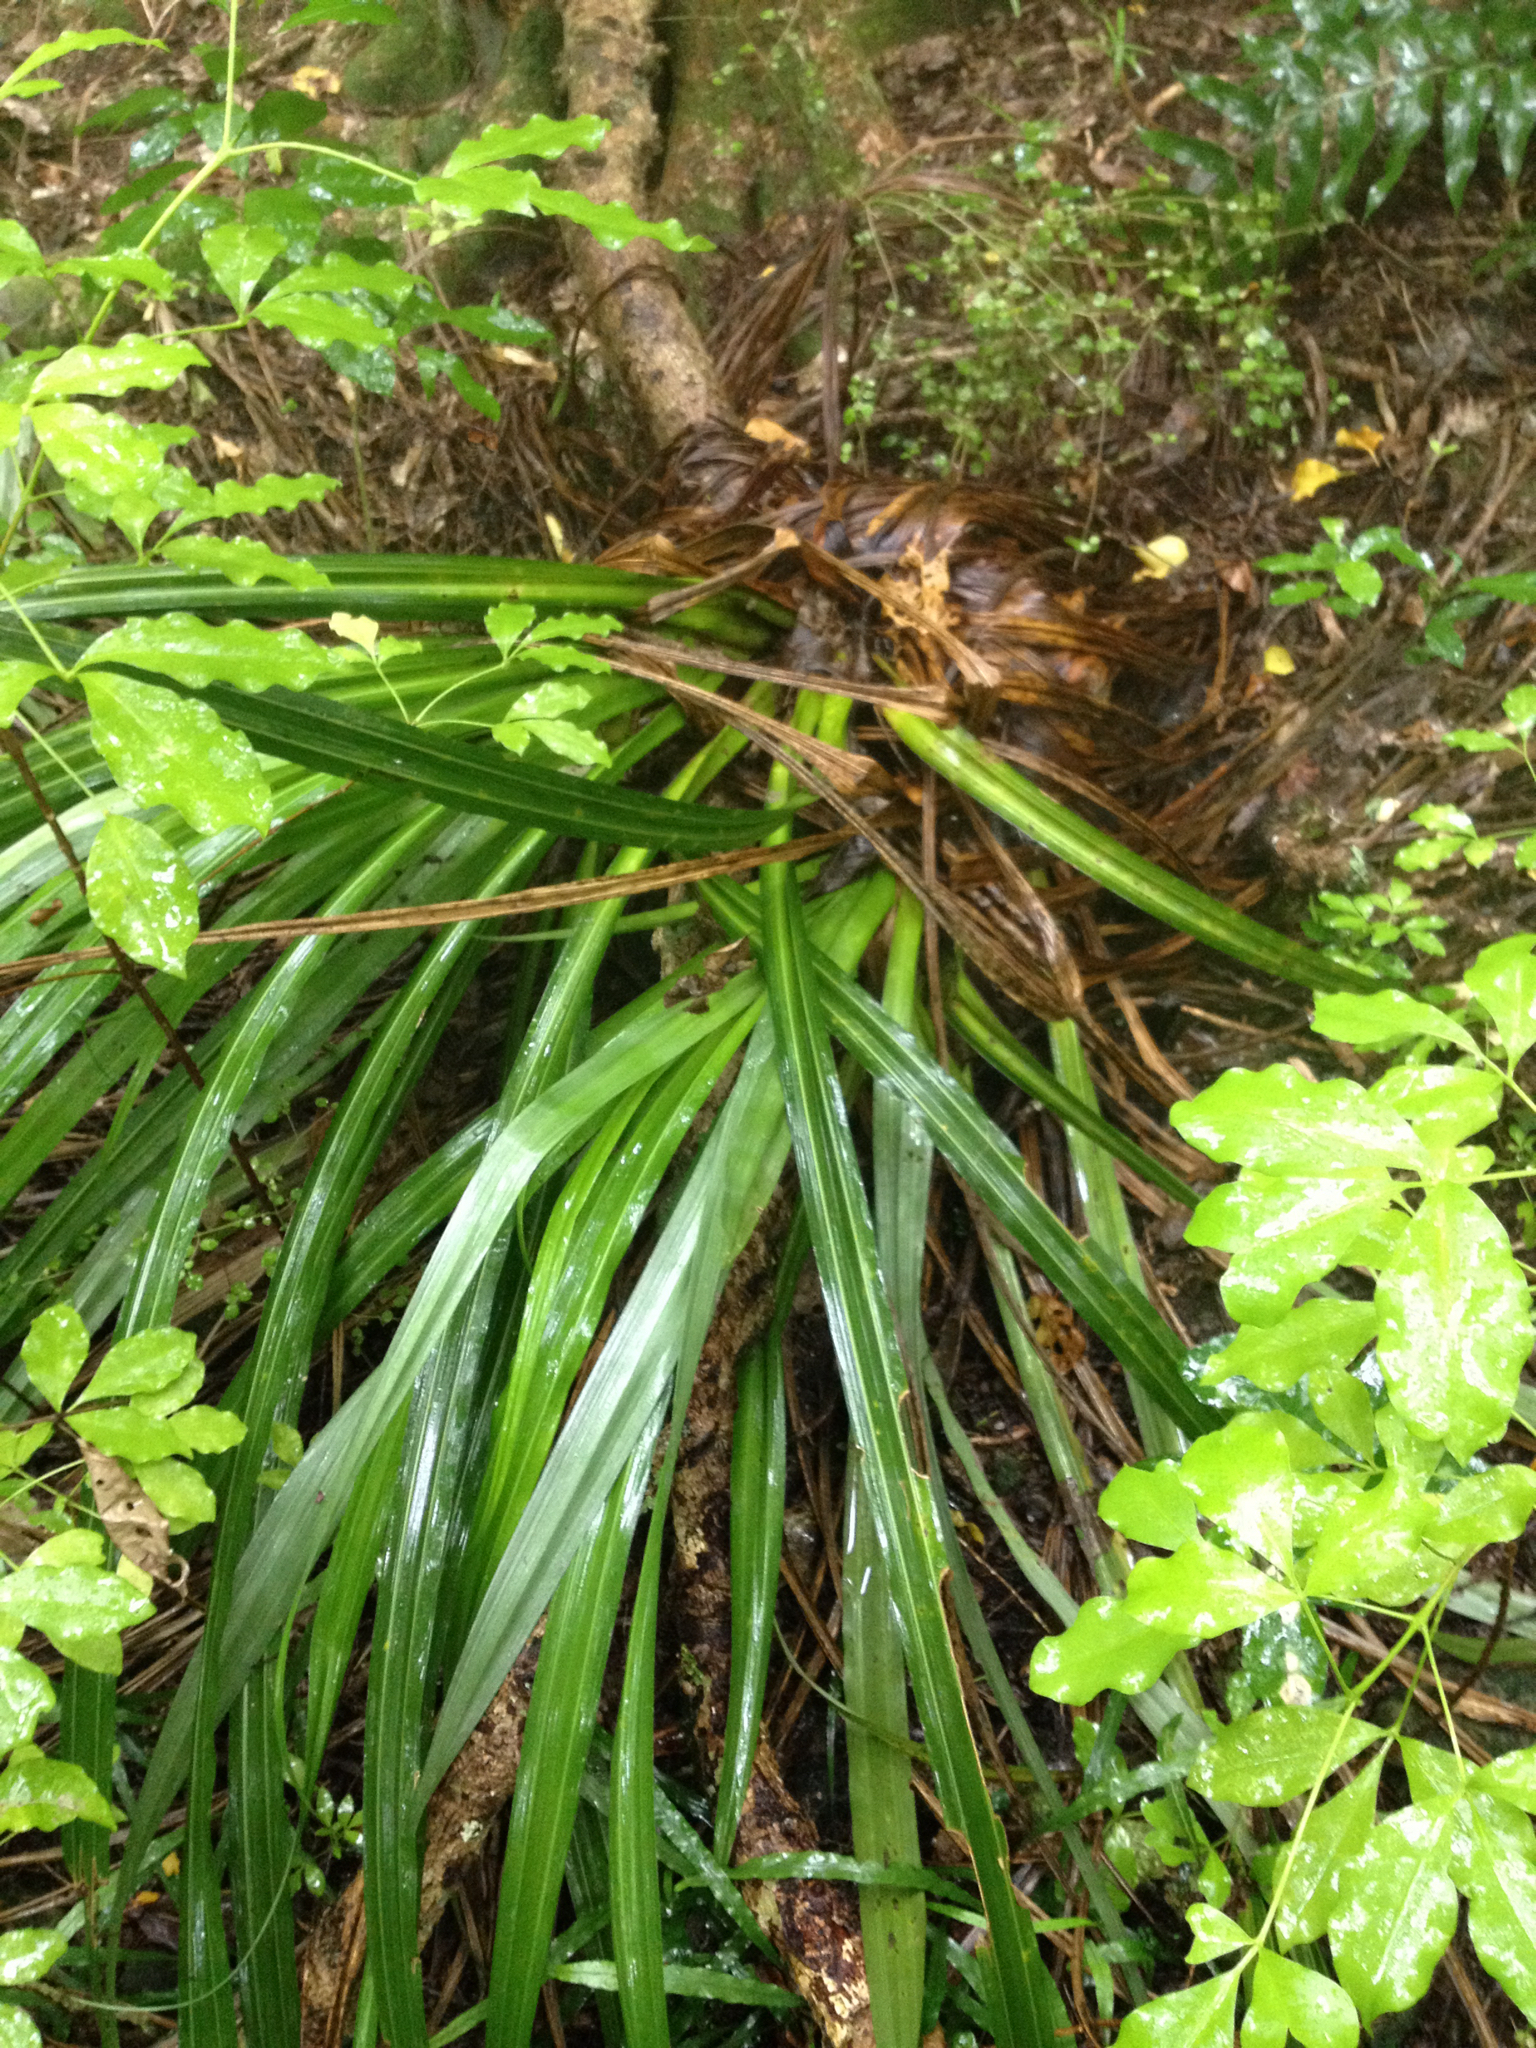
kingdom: Plantae
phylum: Tracheophyta
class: Liliopsida
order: Asparagales
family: Asteliaceae
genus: Astelia
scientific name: Astelia hastata
